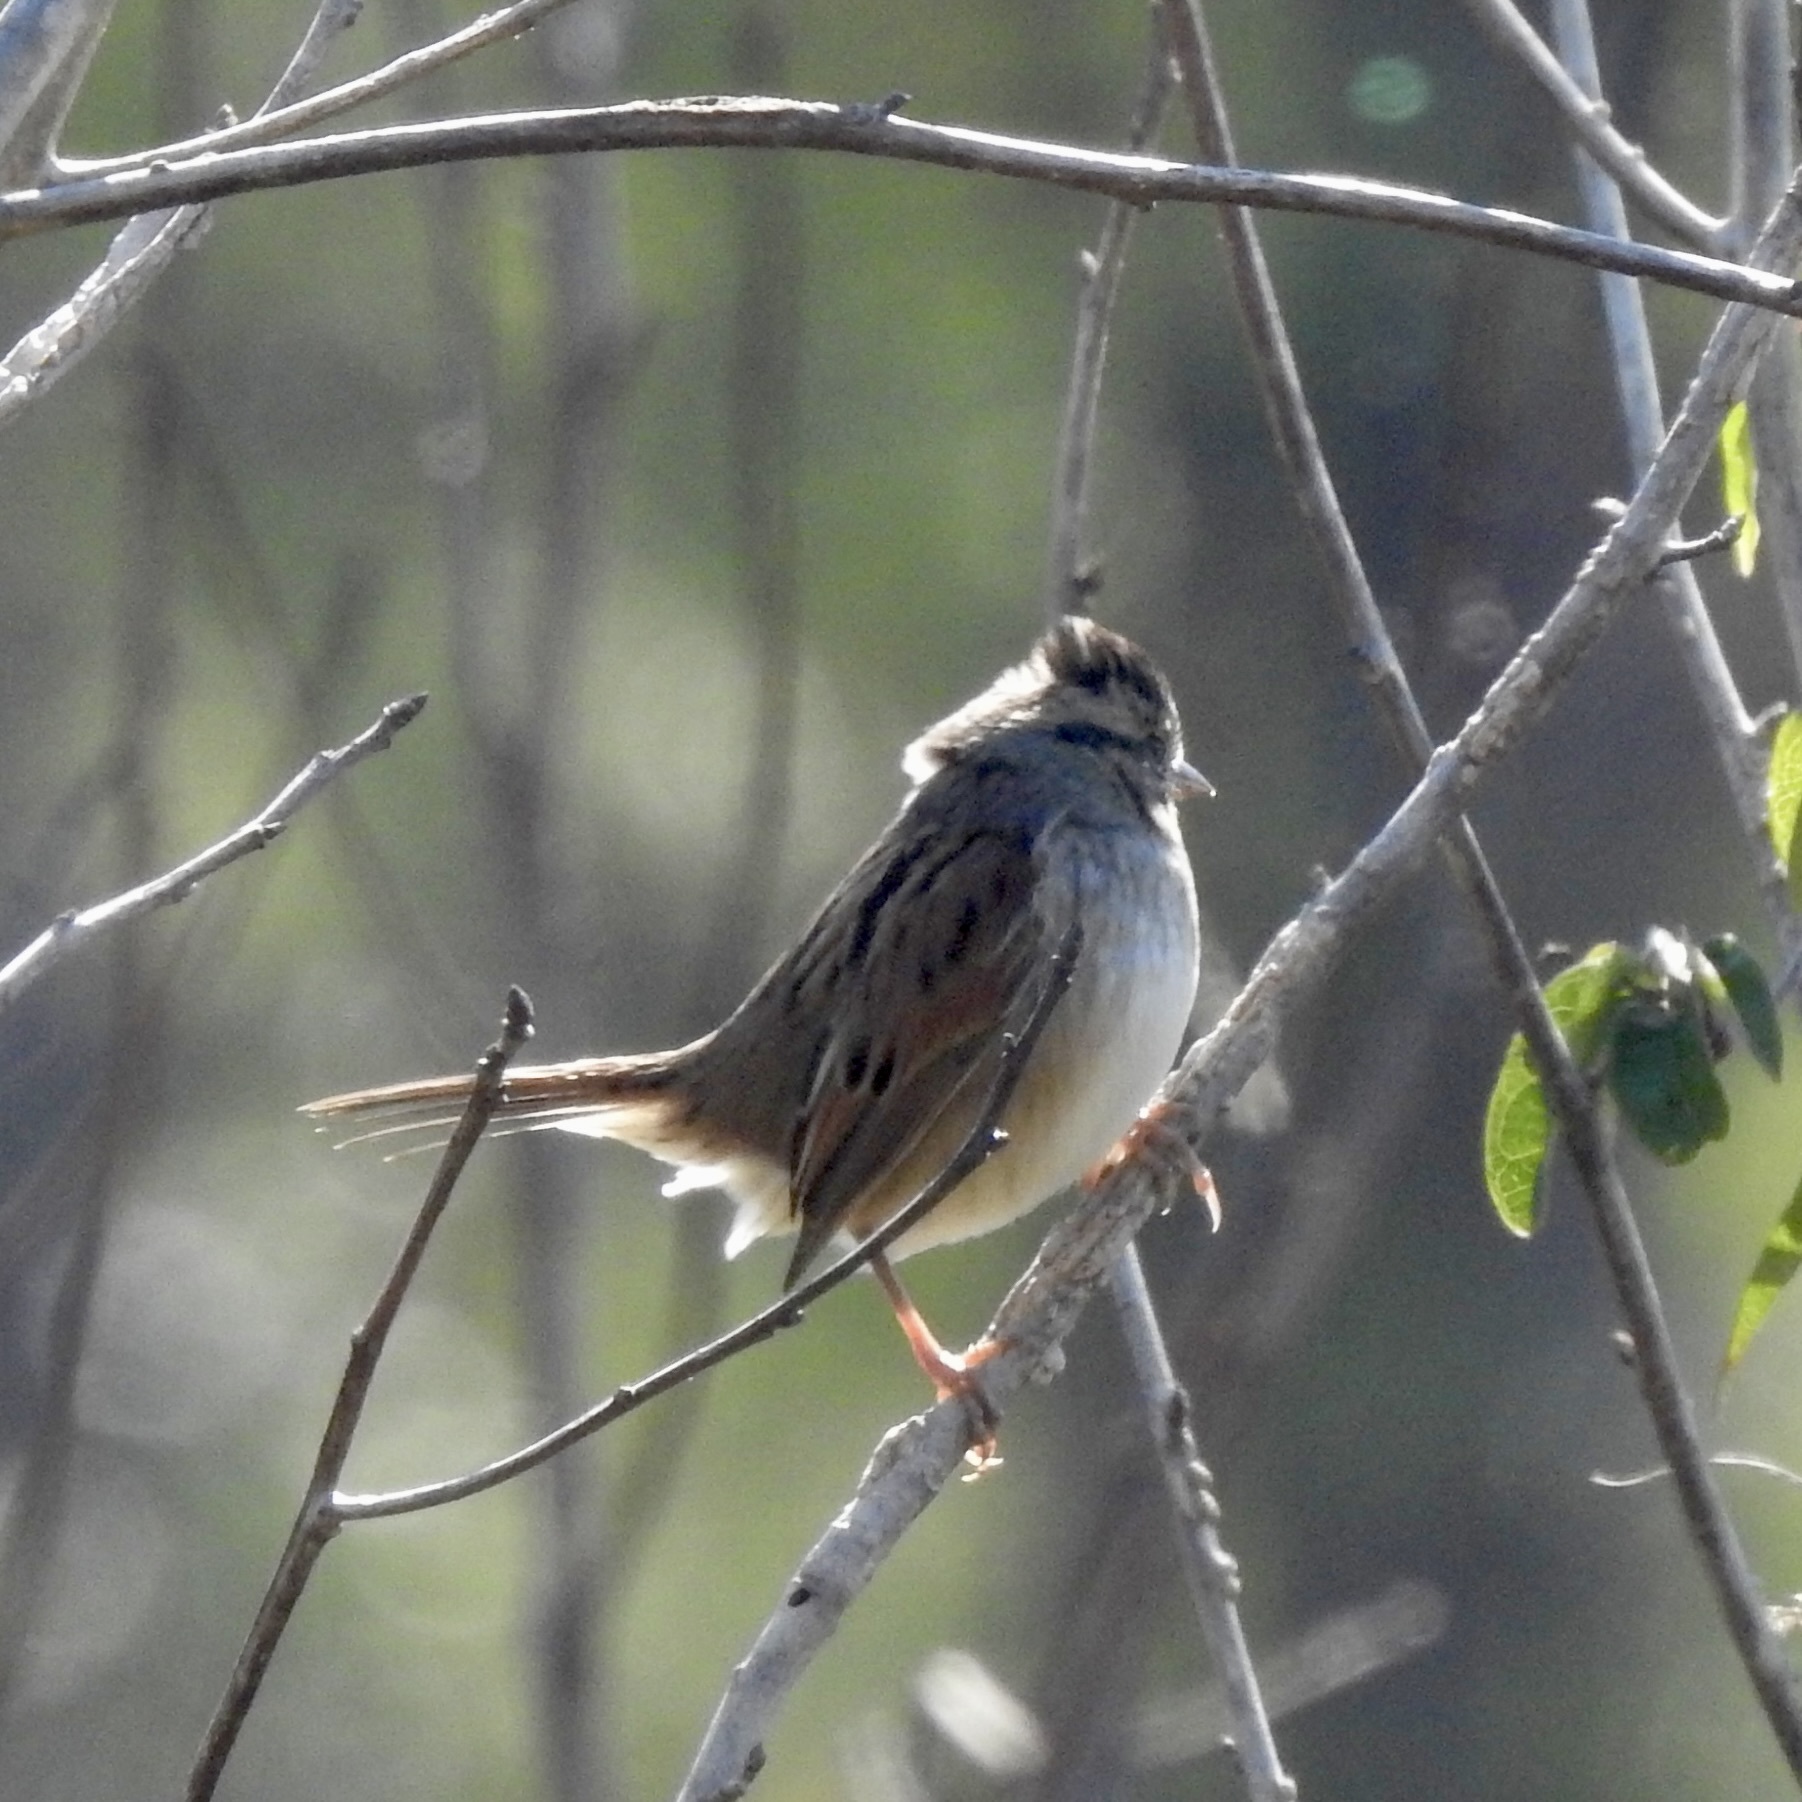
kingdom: Animalia
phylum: Chordata
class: Aves
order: Passeriformes
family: Passerellidae
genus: Melospiza
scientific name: Melospiza georgiana
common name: Swamp sparrow
